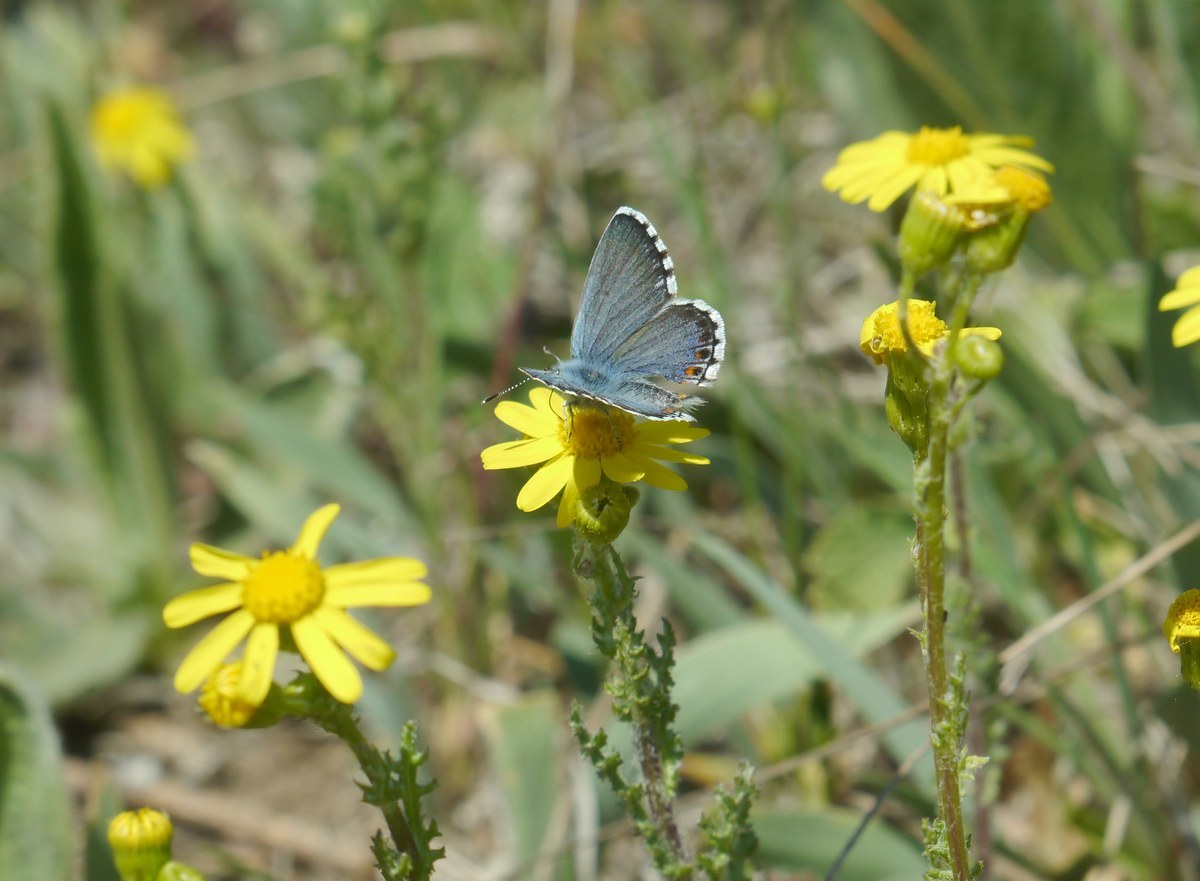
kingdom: Animalia
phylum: Arthropoda
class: Insecta
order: Lepidoptera
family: Lycaenidae
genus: Pseudophilotes
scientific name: Pseudophilotes bavius
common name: Bavius blue
